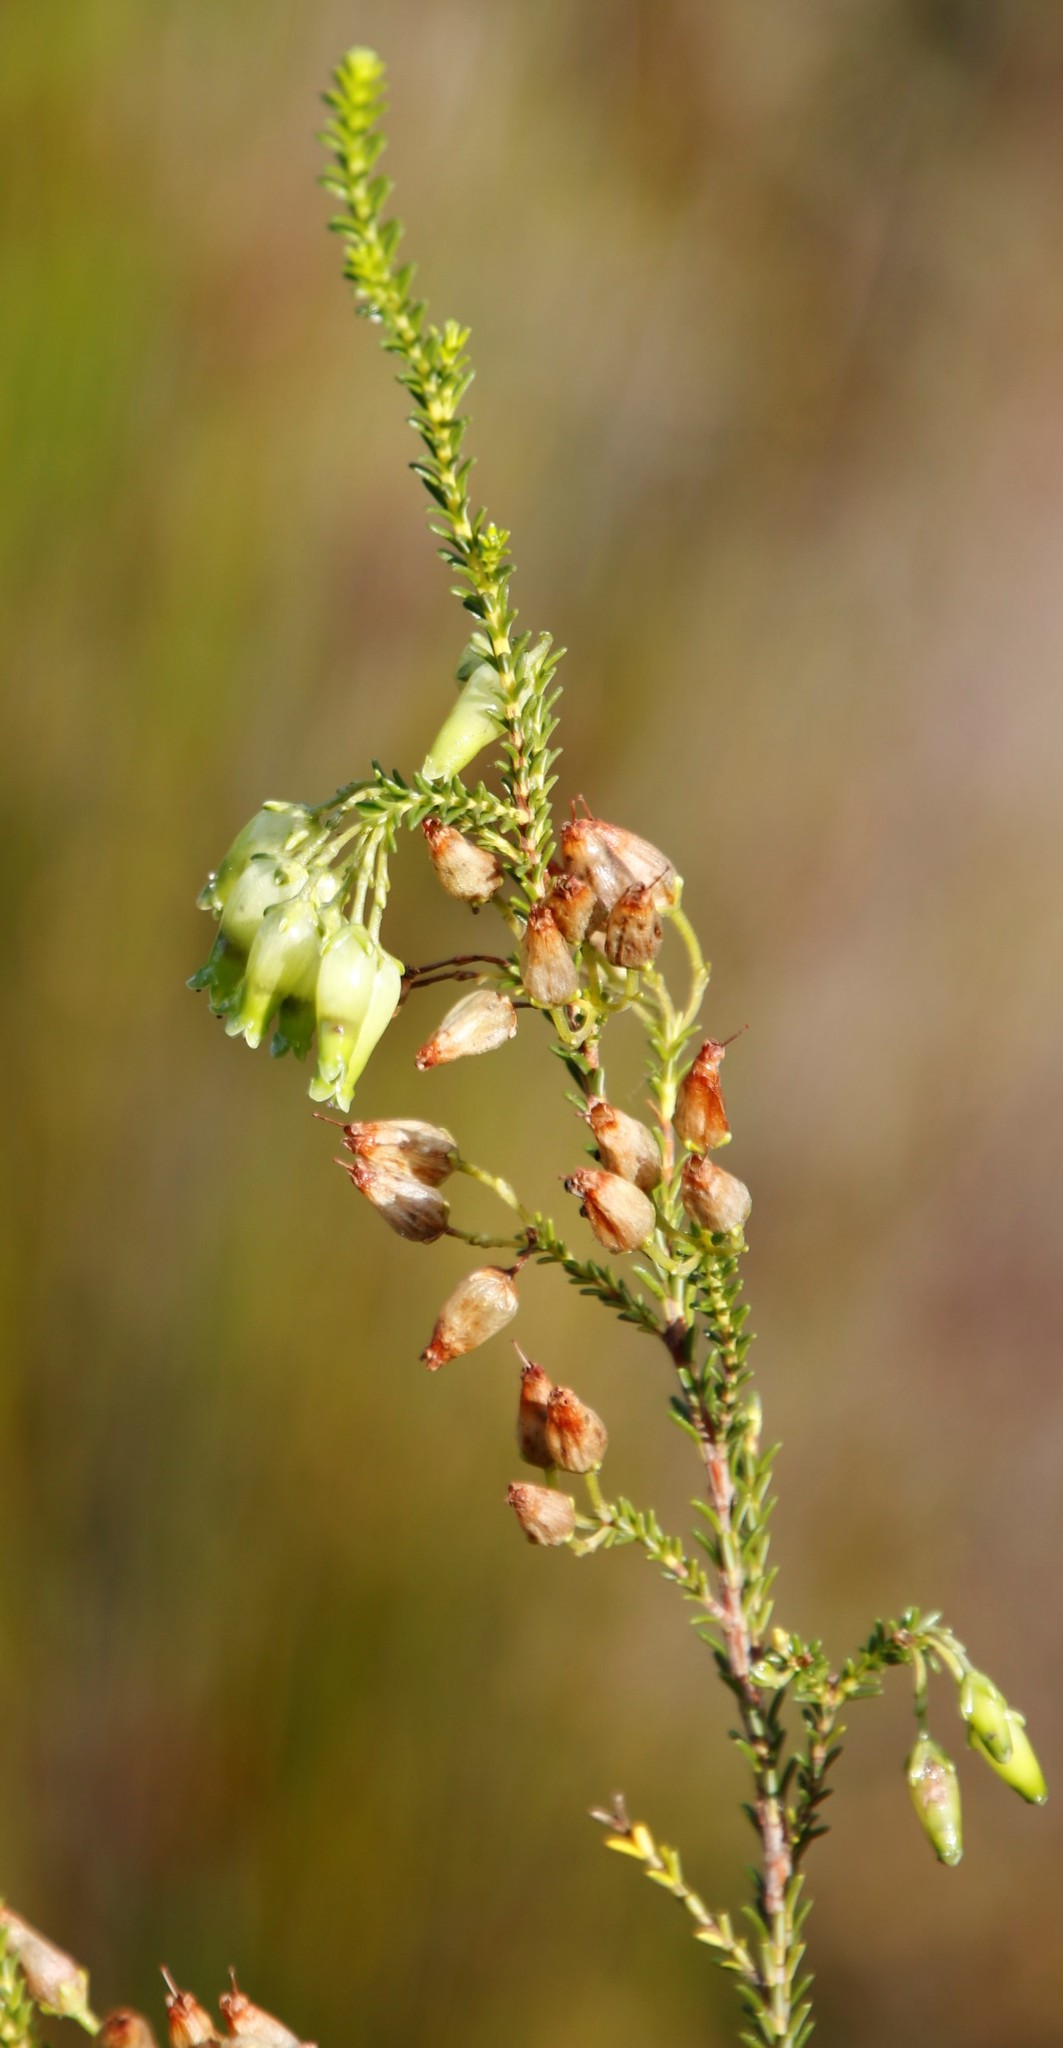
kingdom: Plantae
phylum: Tracheophyta
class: Magnoliopsida
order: Ericales
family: Ericaceae
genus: Erica
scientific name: Erica urna-viridis
